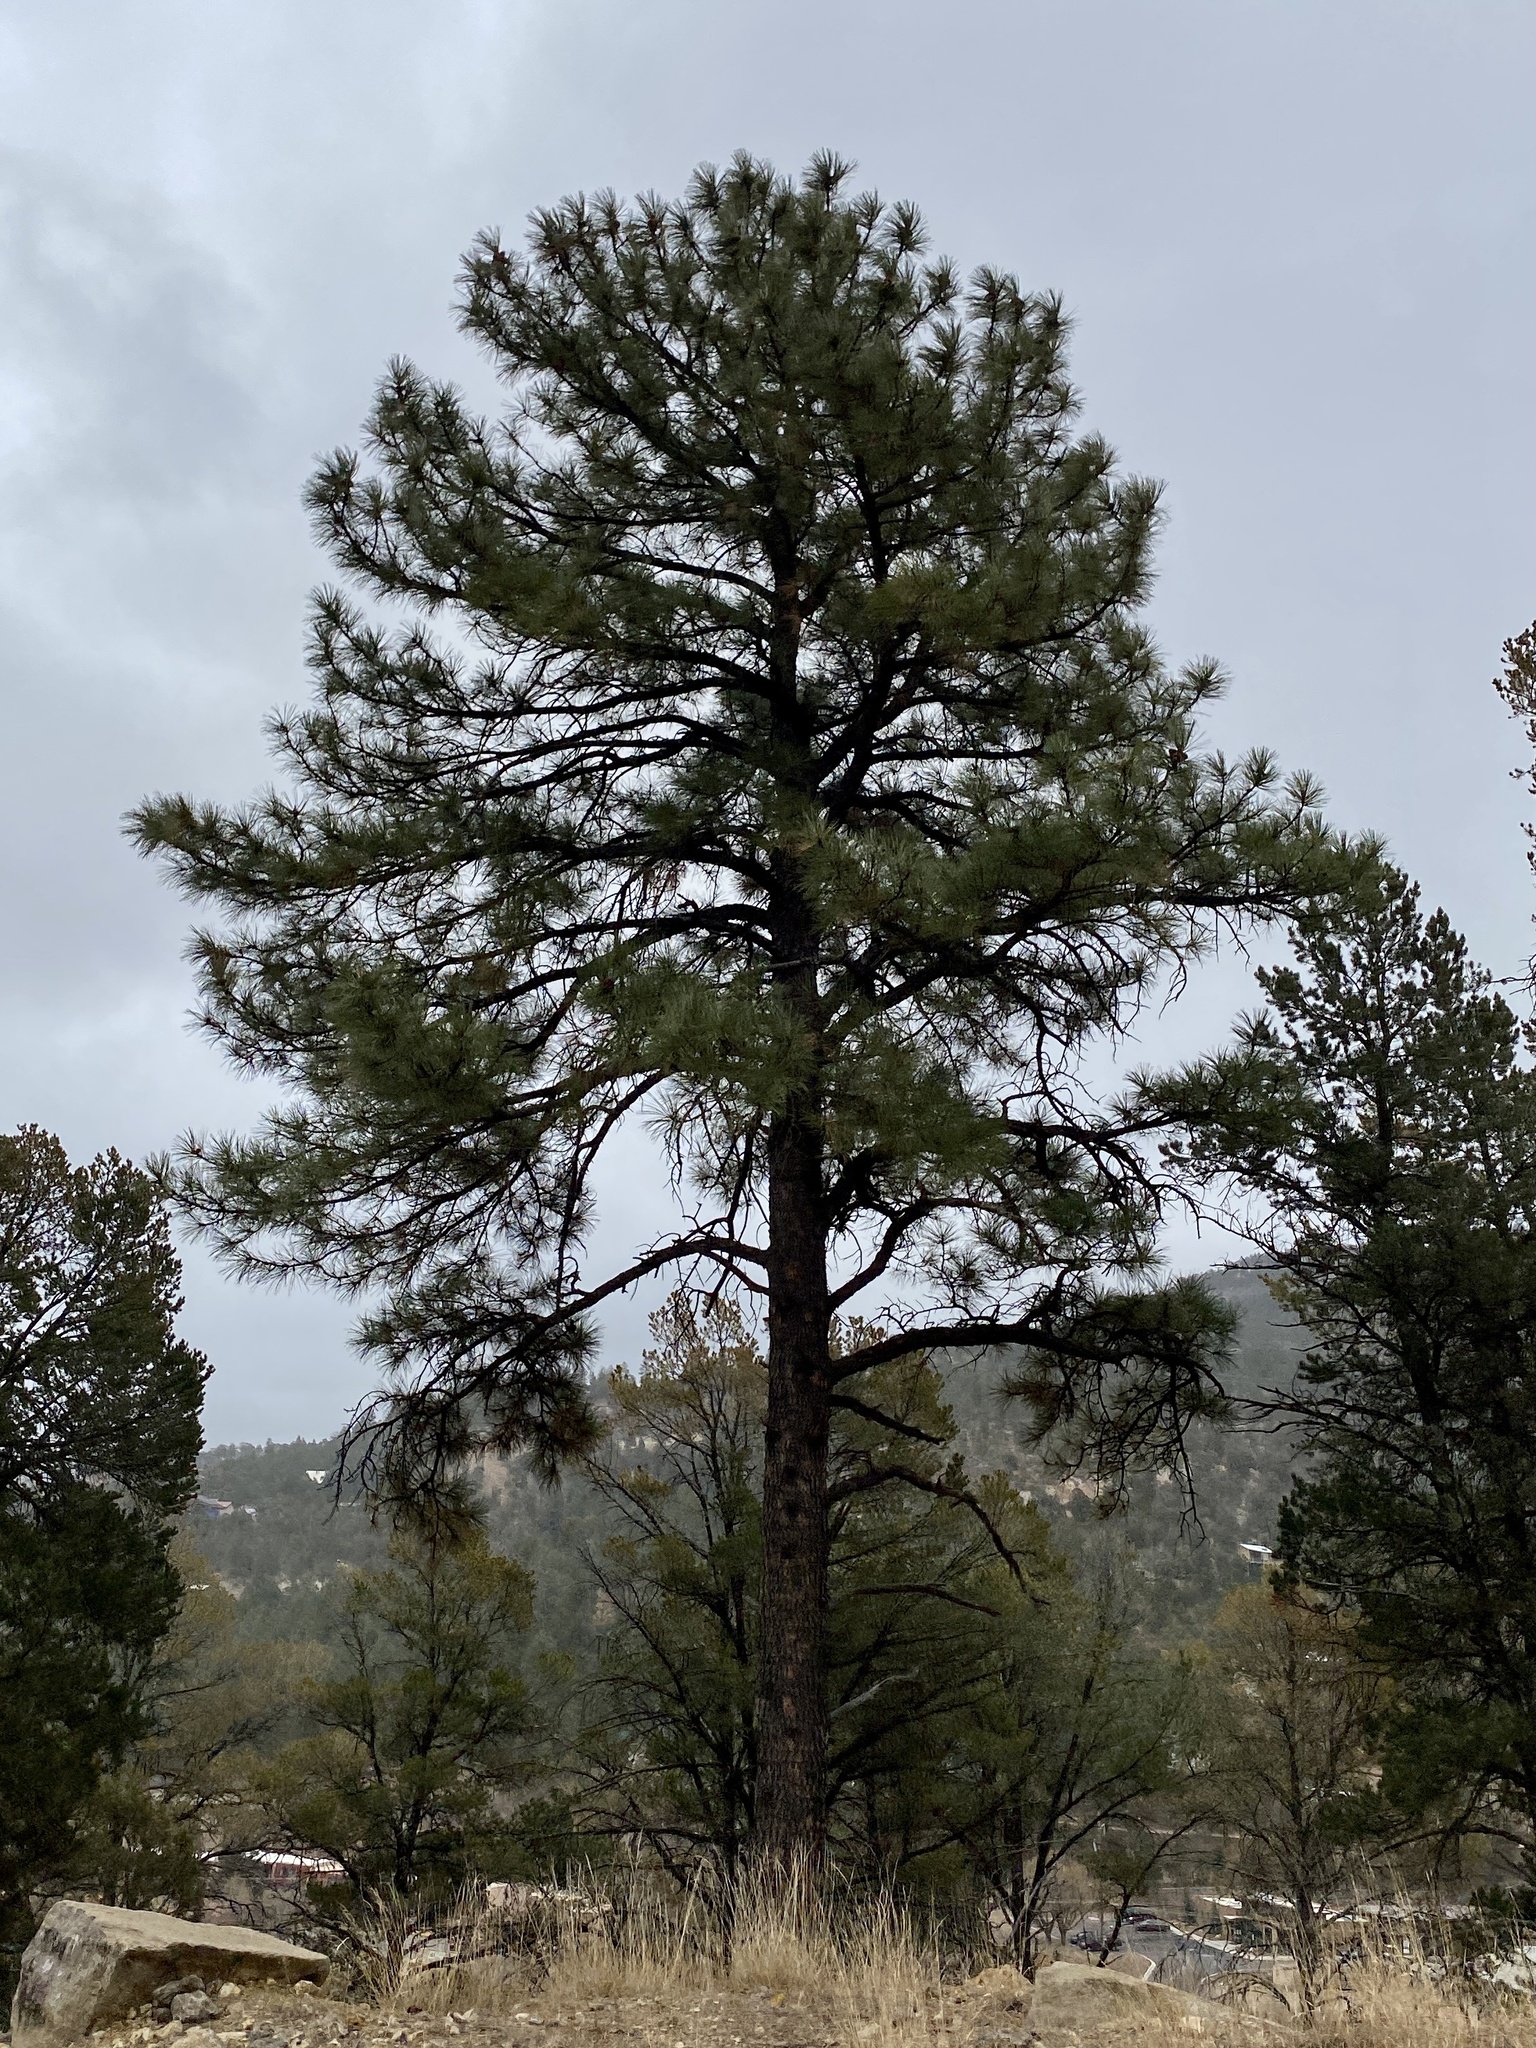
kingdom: Plantae
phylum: Tracheophyta
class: Pinopsida
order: Pinales
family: Pinaceae
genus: Pinus
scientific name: Pinus ponderosa
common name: Western yellow-pine
